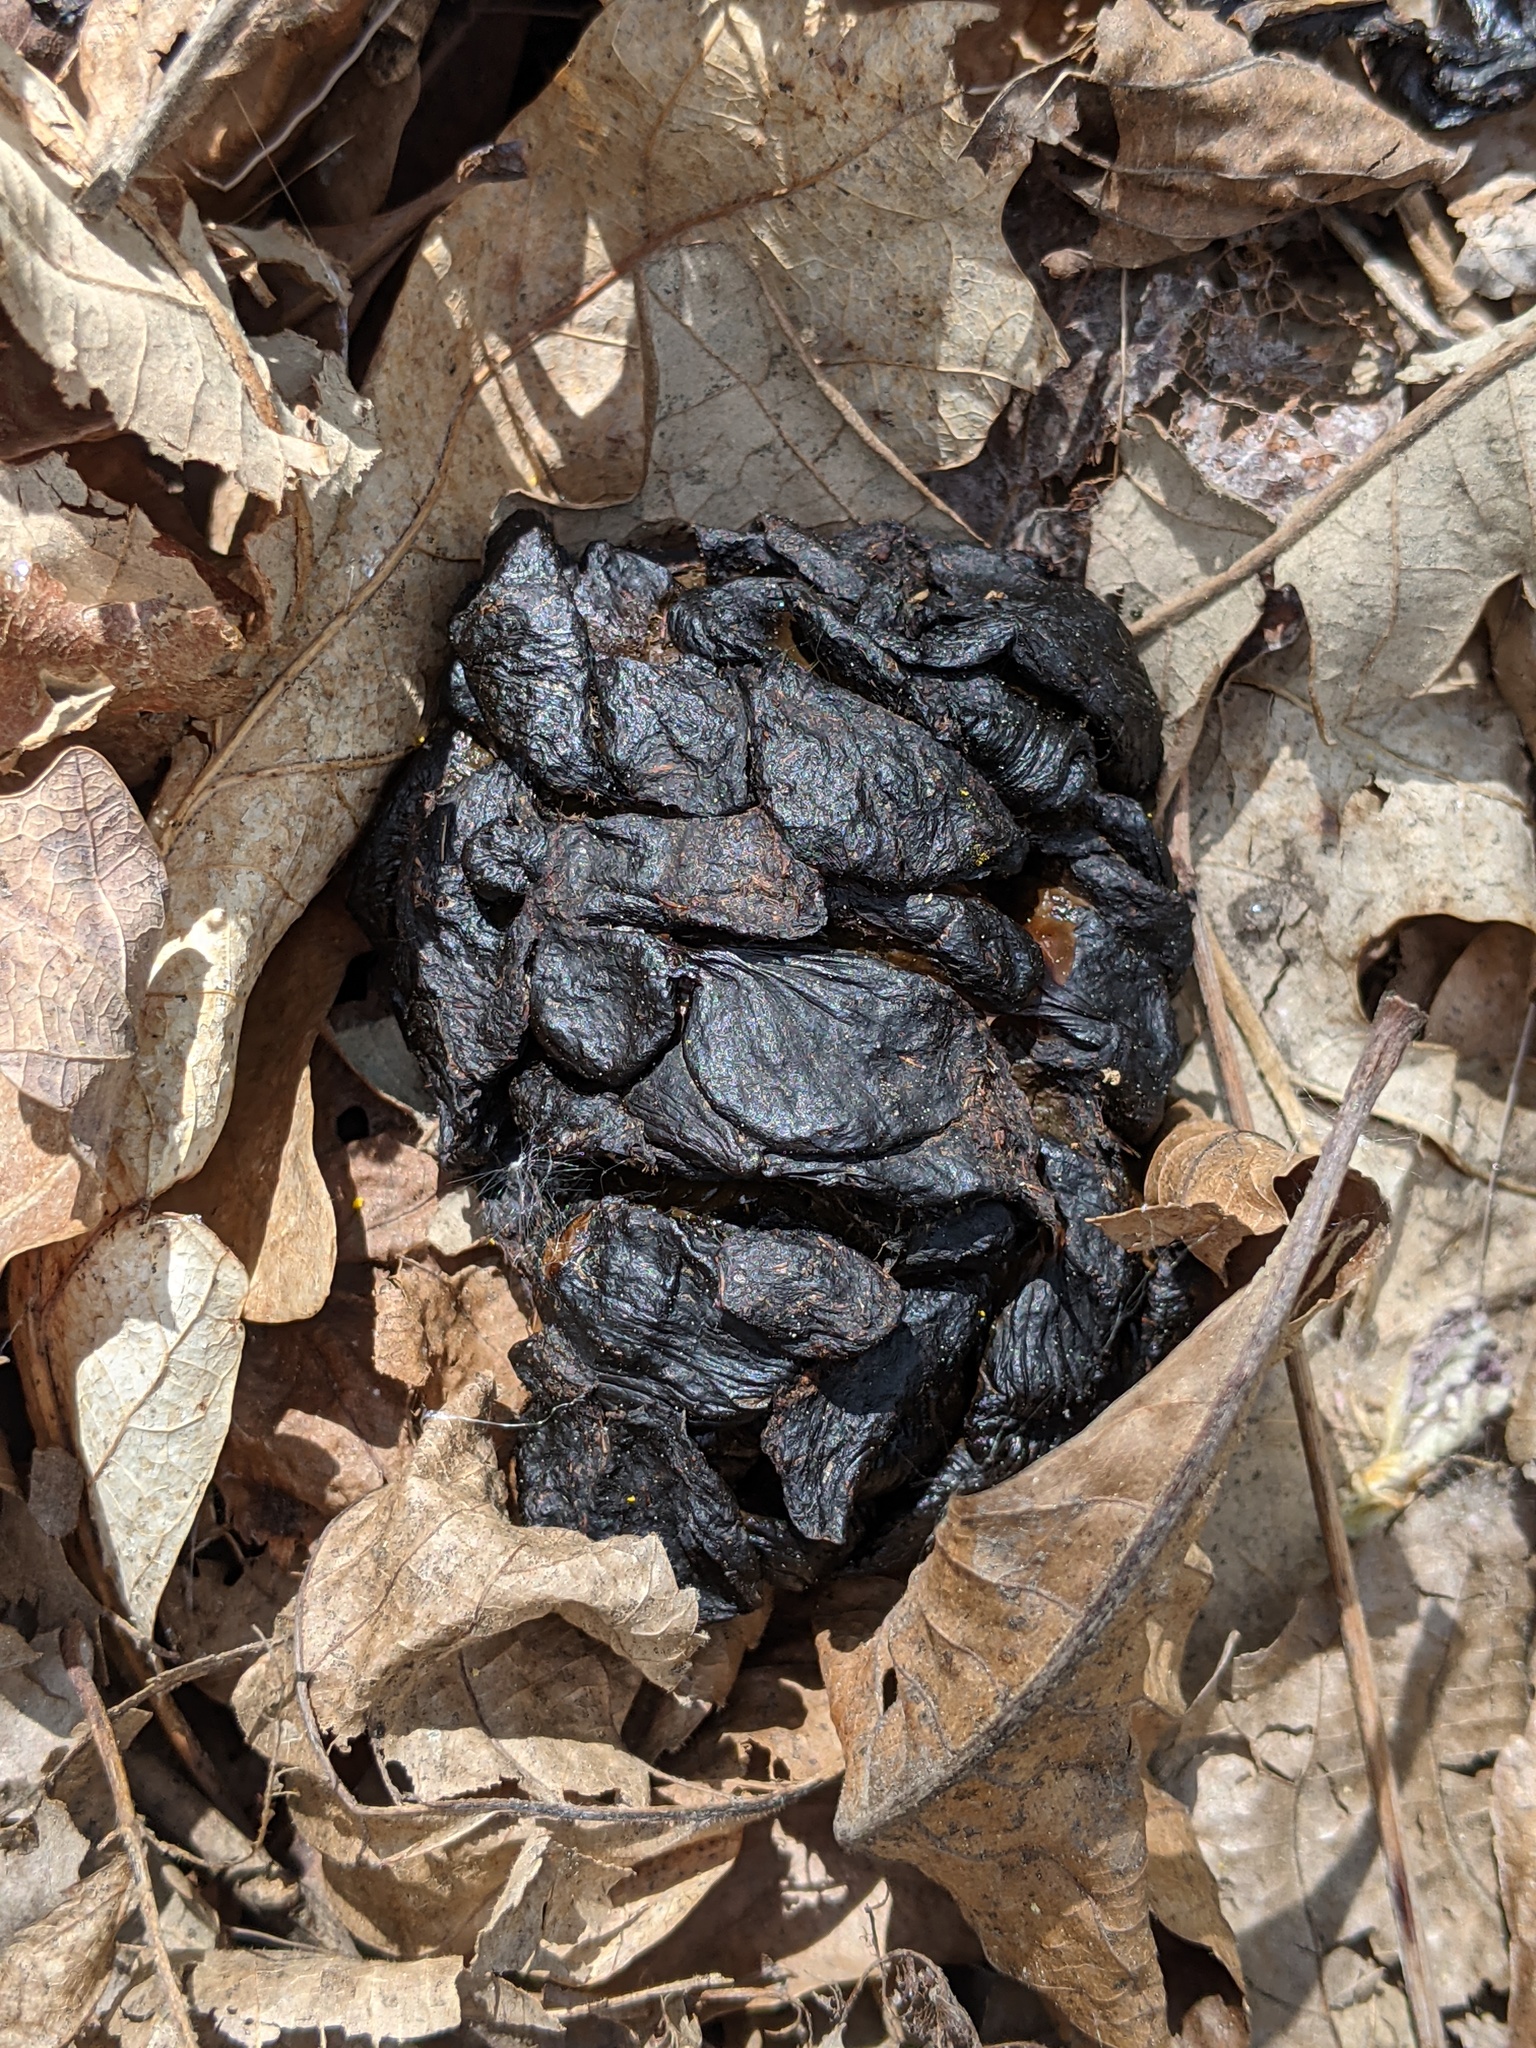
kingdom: Animalia
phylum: Chordata
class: Mammalia
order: Artiodactyla
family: Cervidae
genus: Odocoileus
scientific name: Odocoileus virginianus
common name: White-tailed deer
